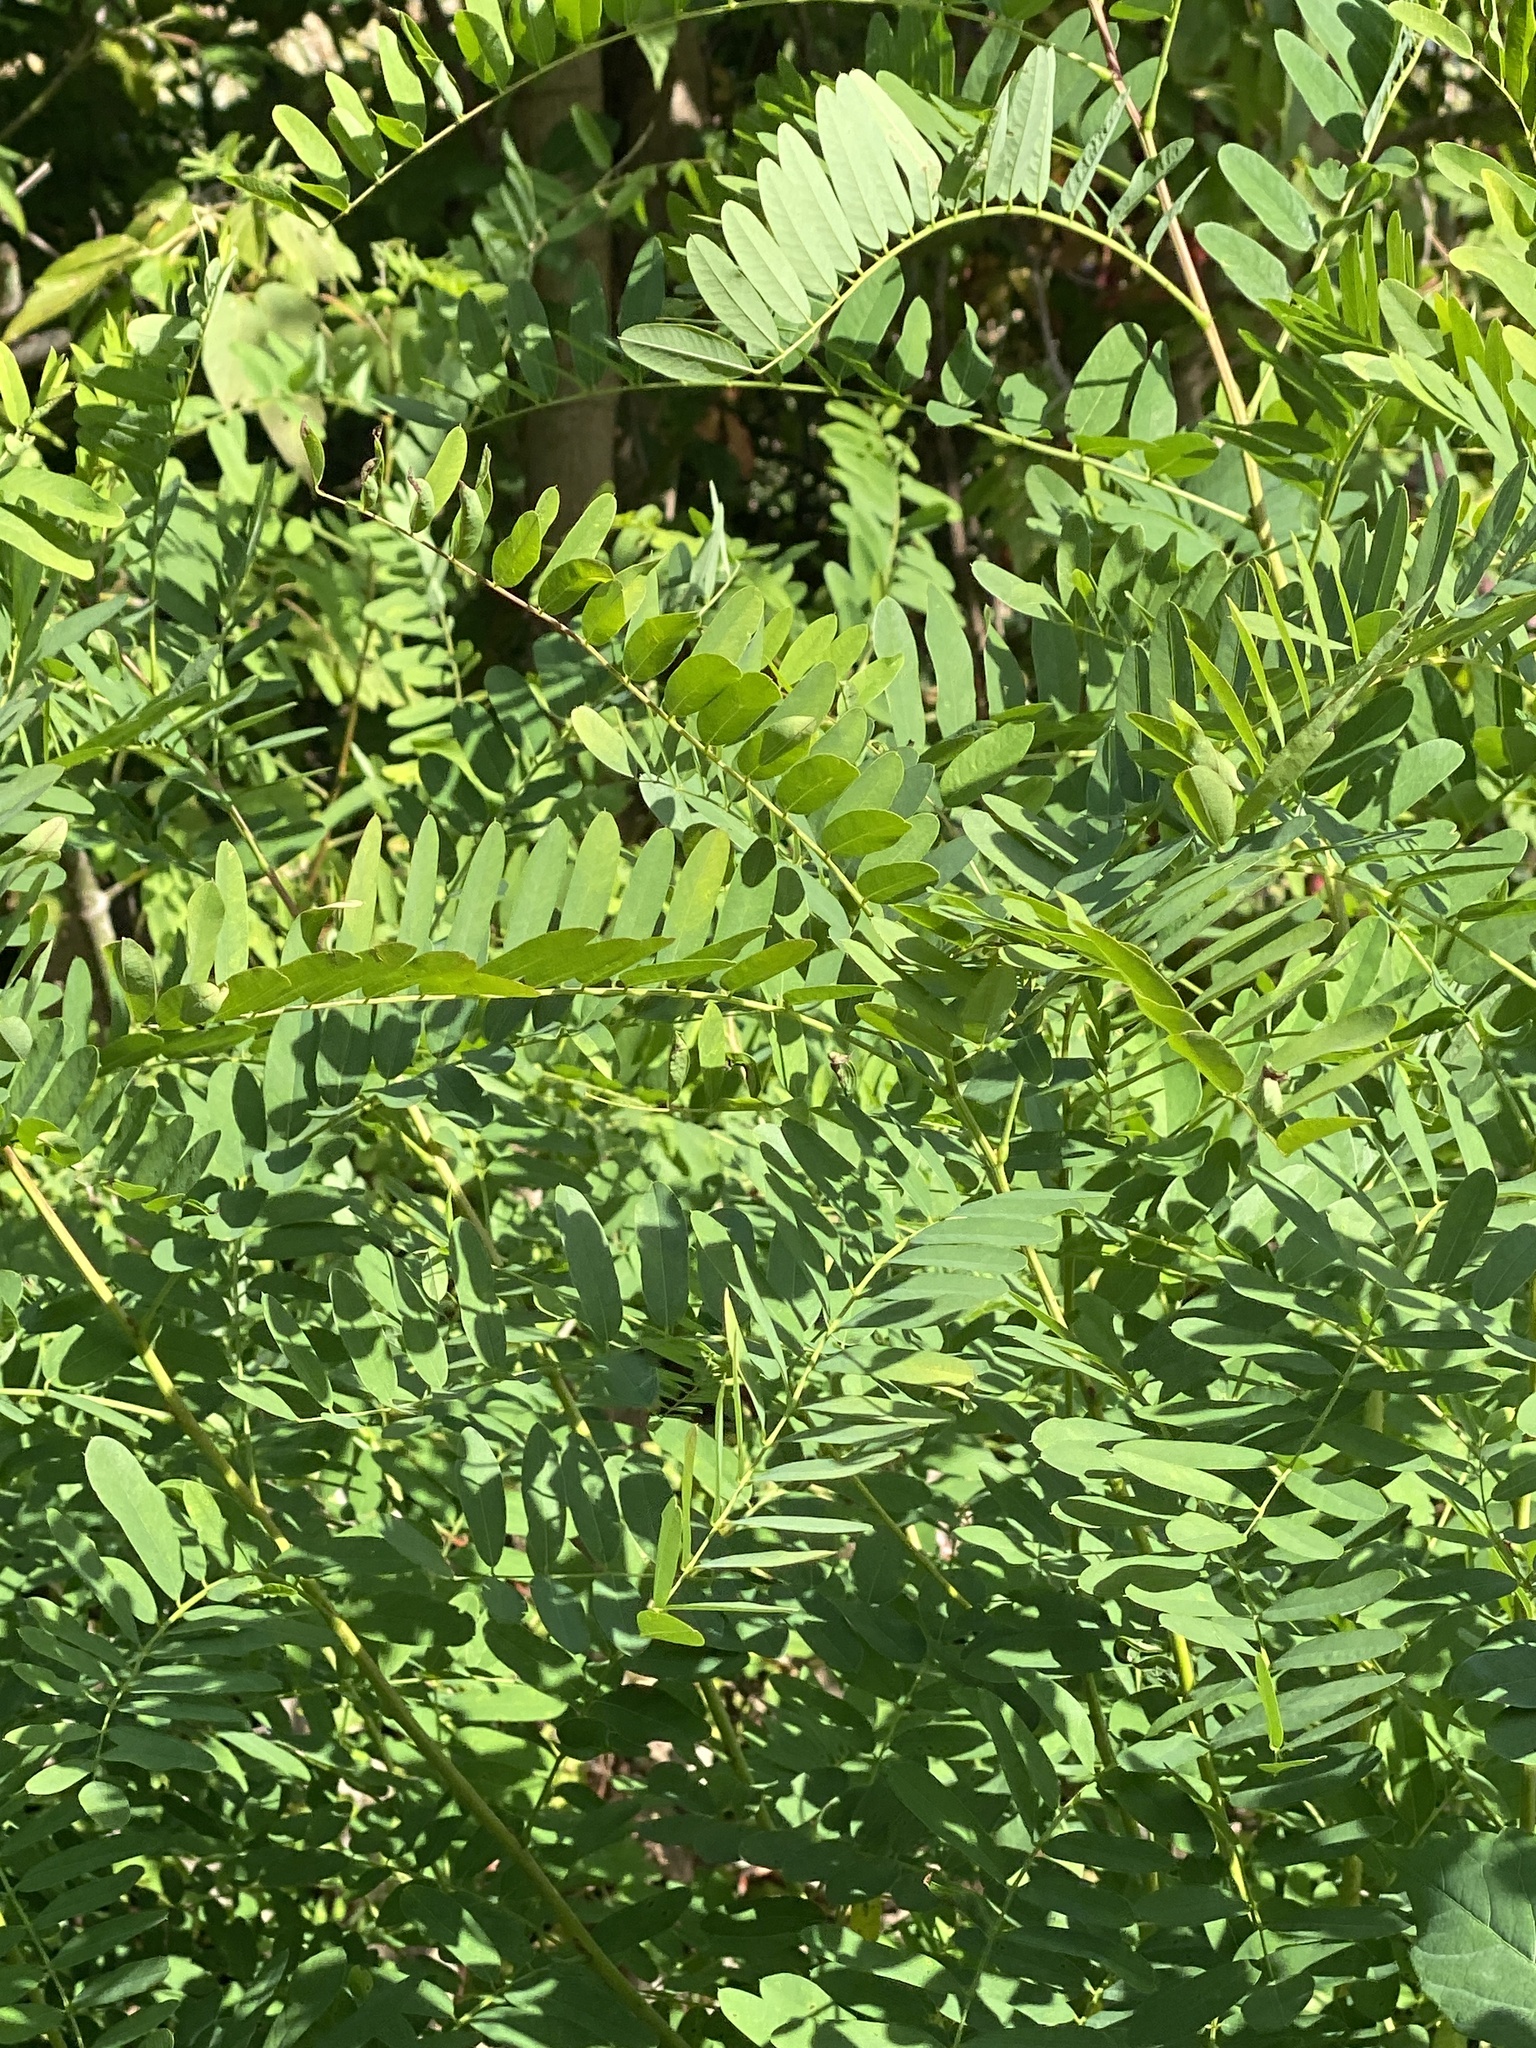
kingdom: Plantae
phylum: Tracheophyta
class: Magnoliopsida
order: Fabales
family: Fabaceae
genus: Amorpha
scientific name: Amorpha fruticosa
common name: False indigo
